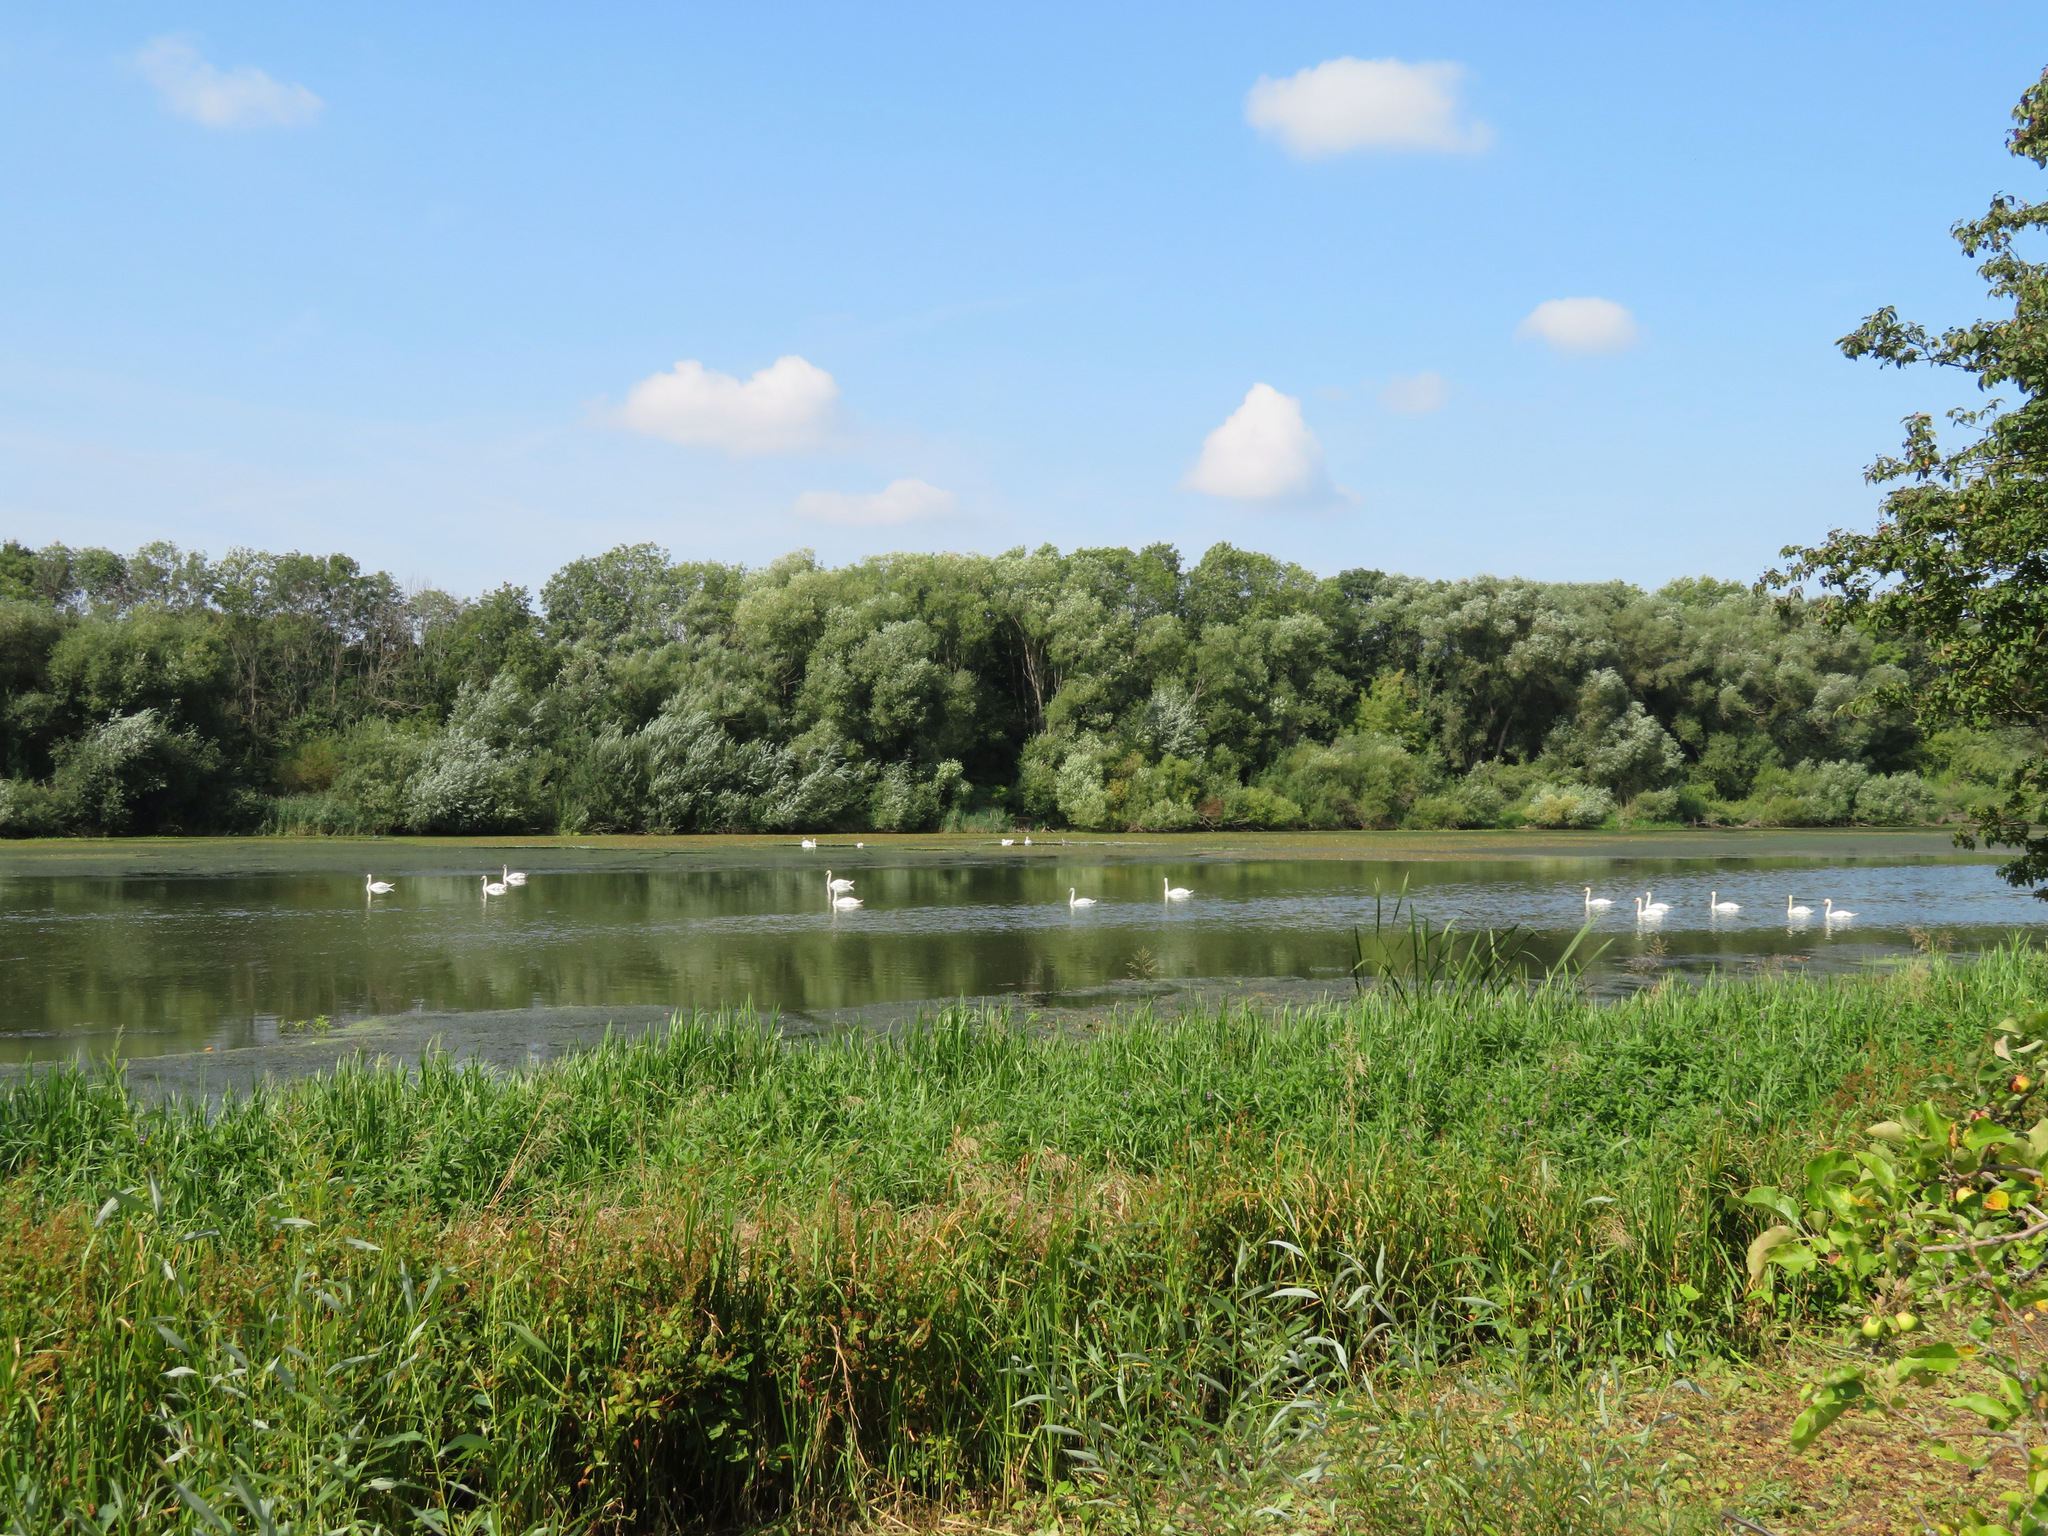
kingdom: Animalia
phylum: Chordata
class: Aves
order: Anseriformes
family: Anatidae
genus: Cygnus
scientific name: Cygnus olor
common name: Mute swan
